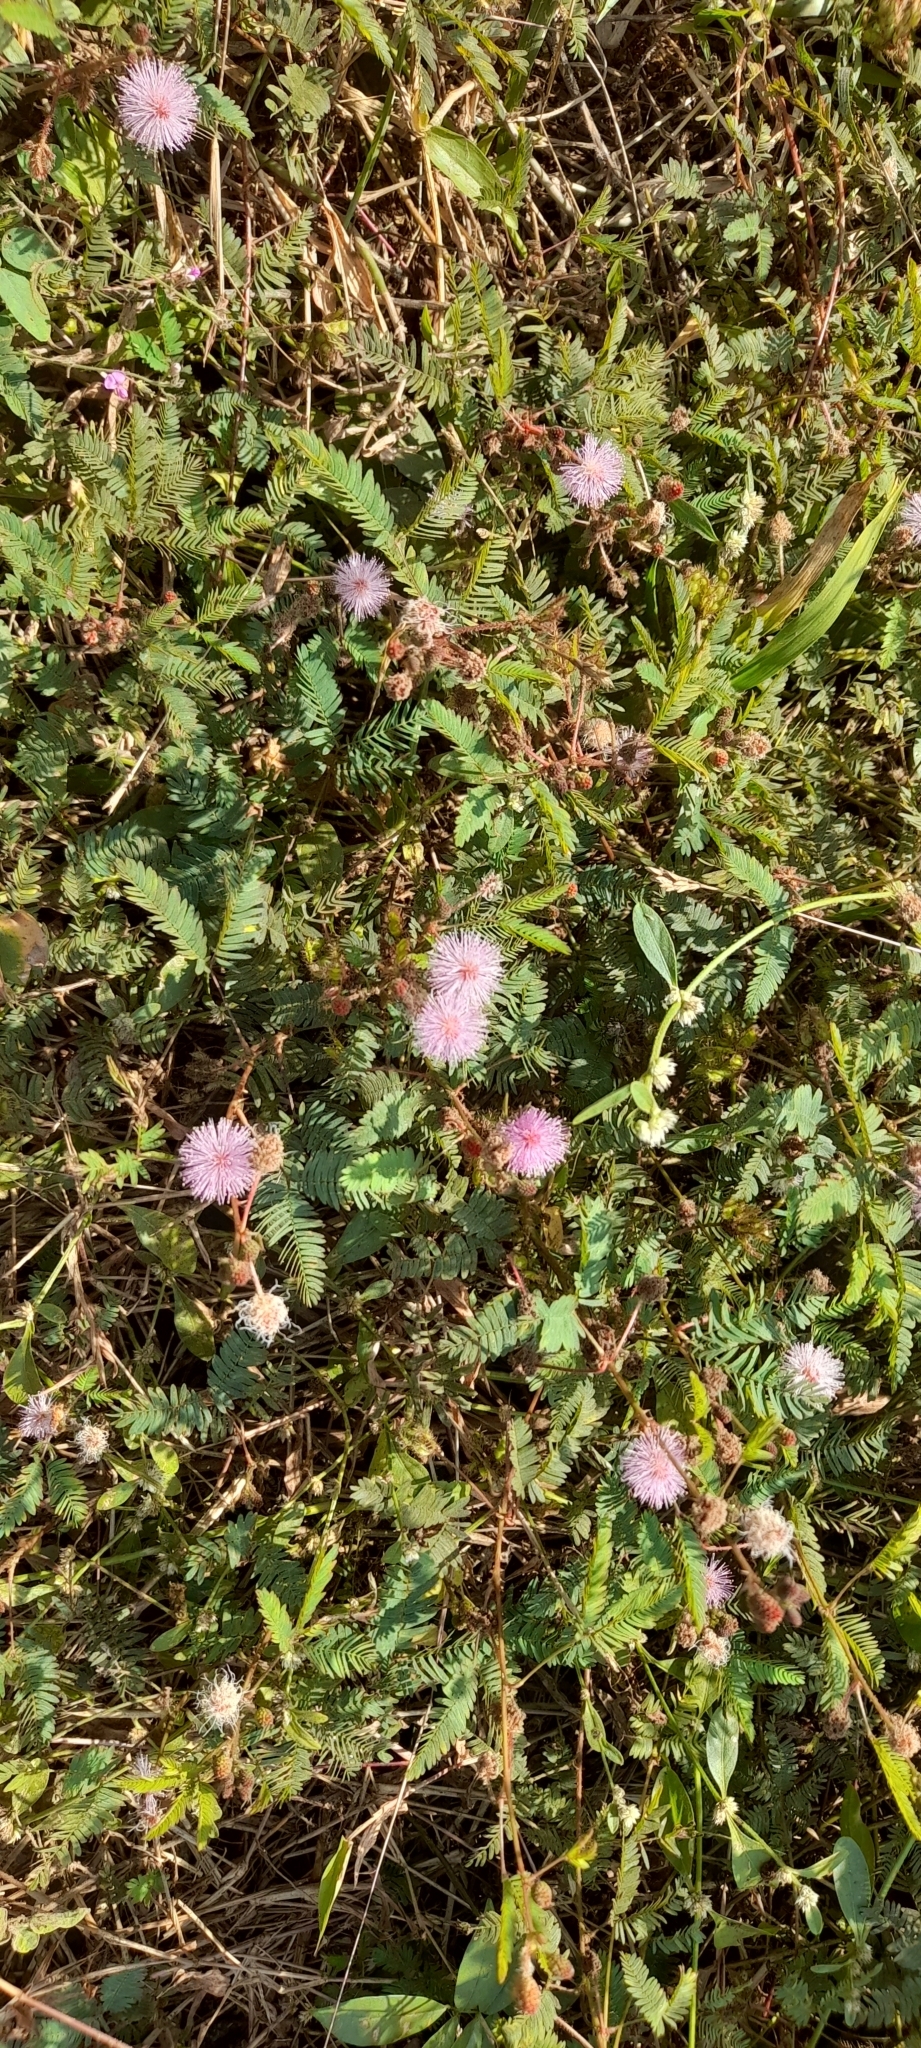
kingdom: Plantae
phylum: Tracheophyta
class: Magnoliopsida
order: Fabales
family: Fabaceae
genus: Mimosa
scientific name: Mimosa pudica
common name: Sensitive plant
